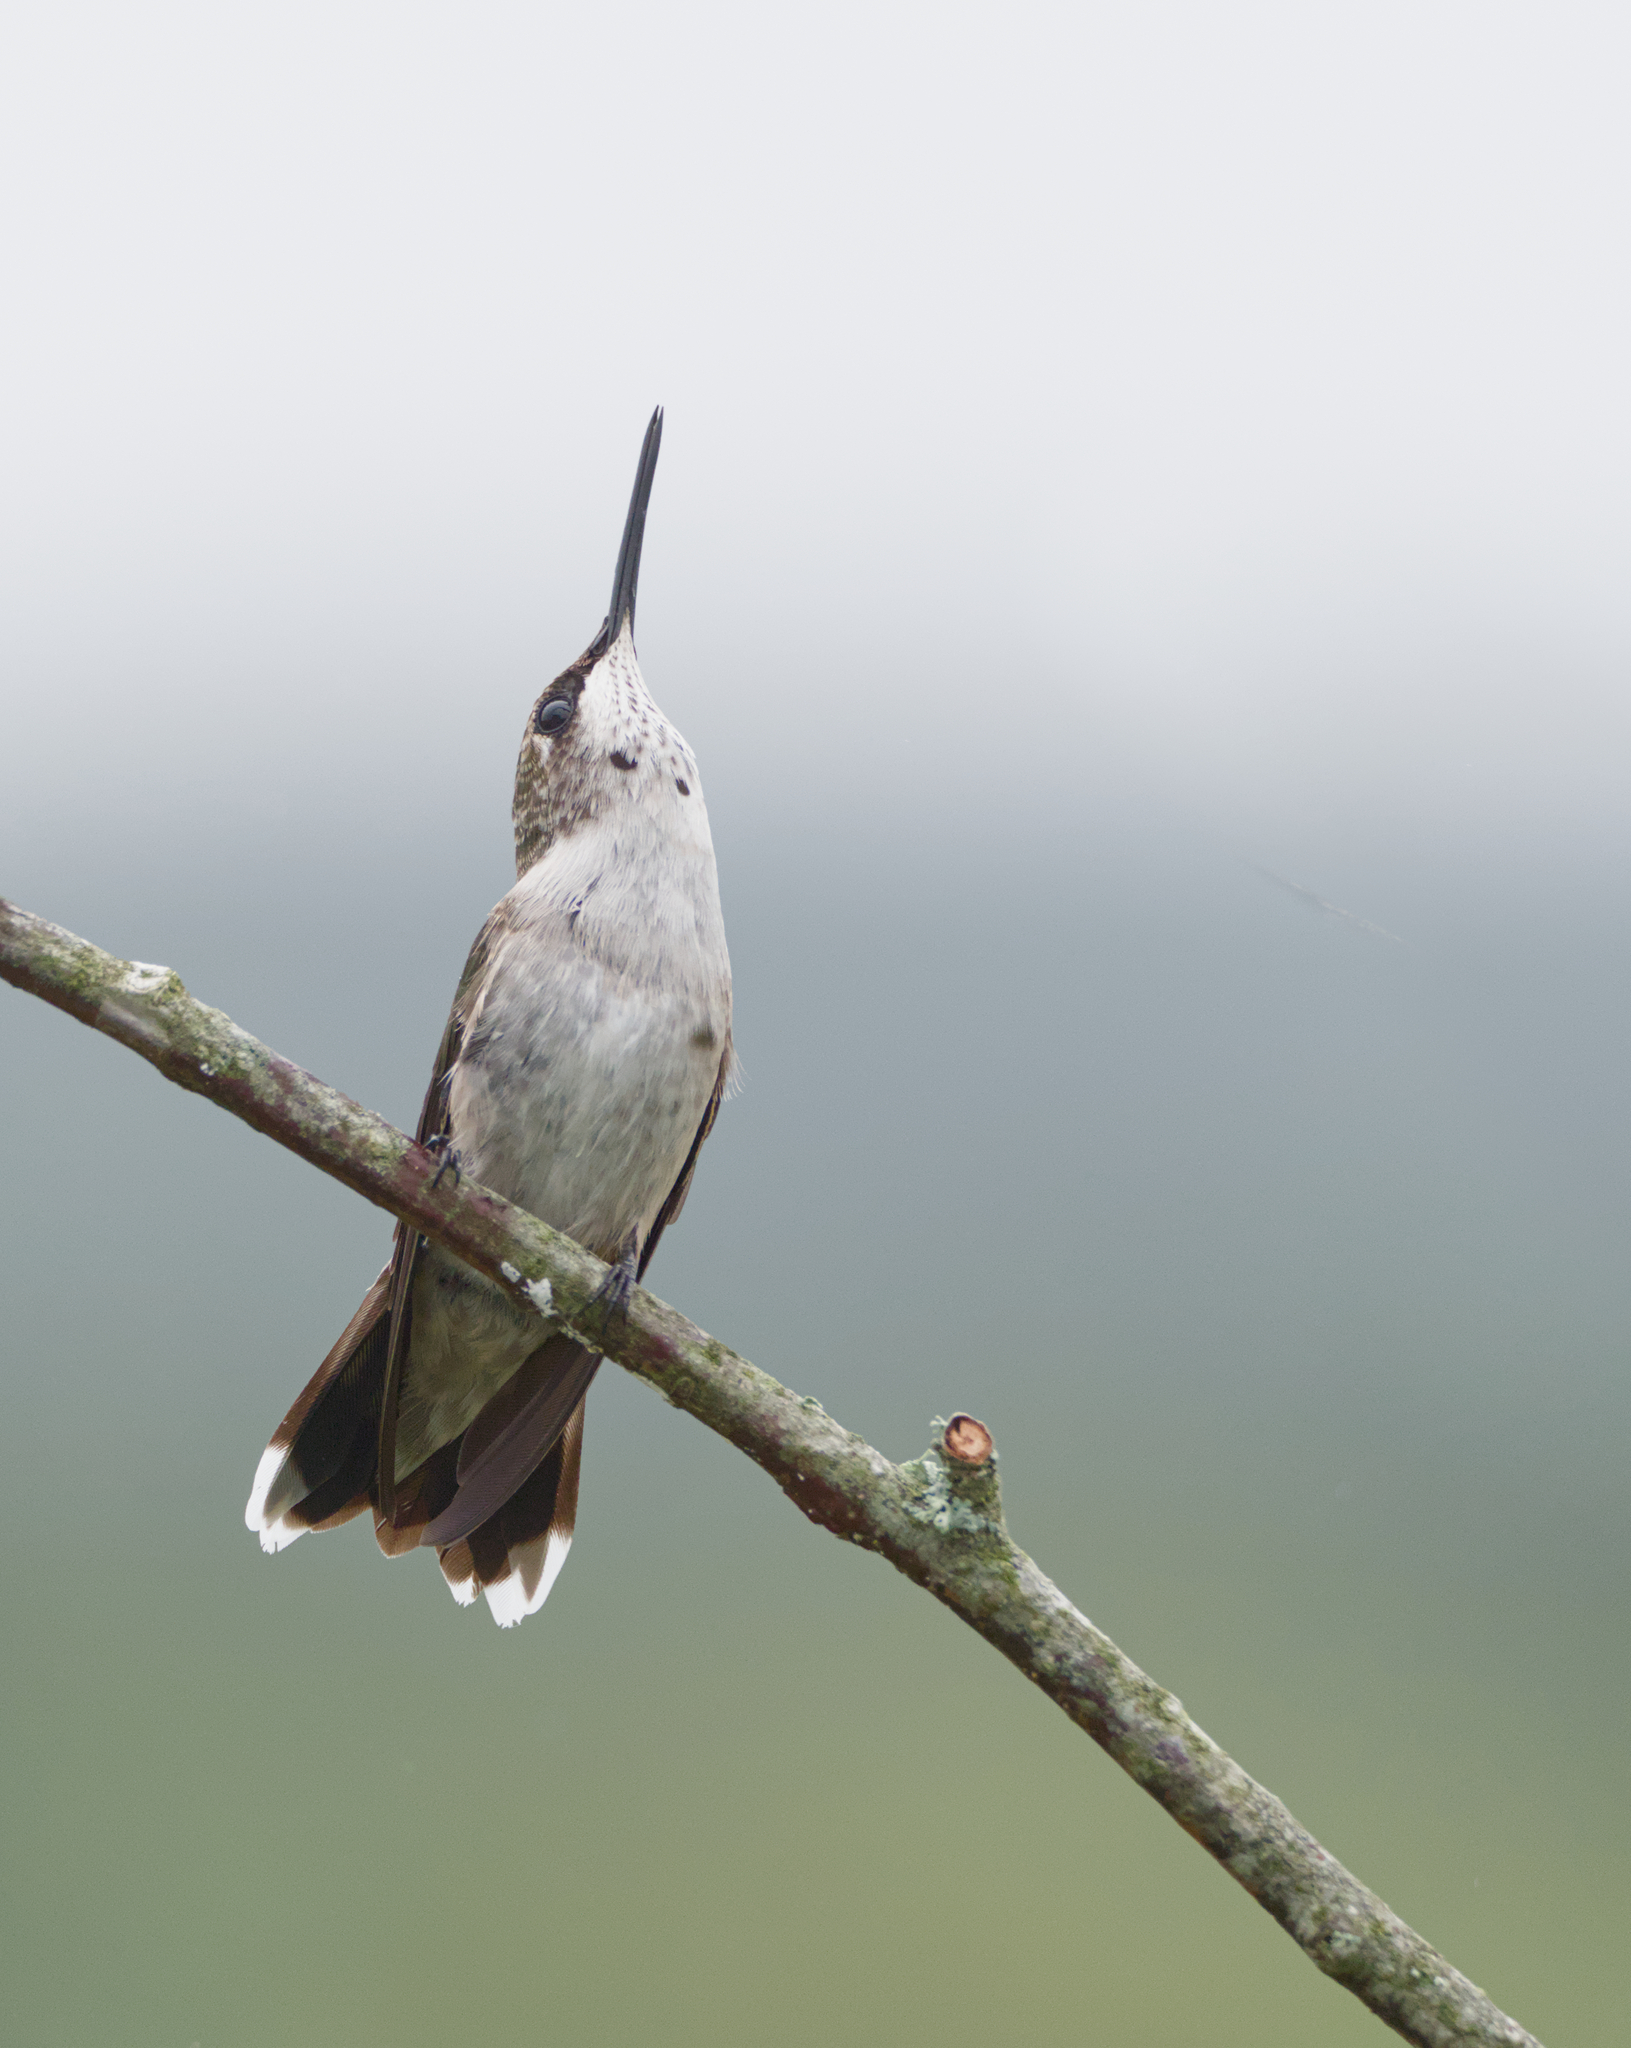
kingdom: Animalia
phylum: Chordata
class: Aves
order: Apodiformes
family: Trochilidae
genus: Archilochus
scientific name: Archilochus colubris
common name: Ruby-throated hummingbird
